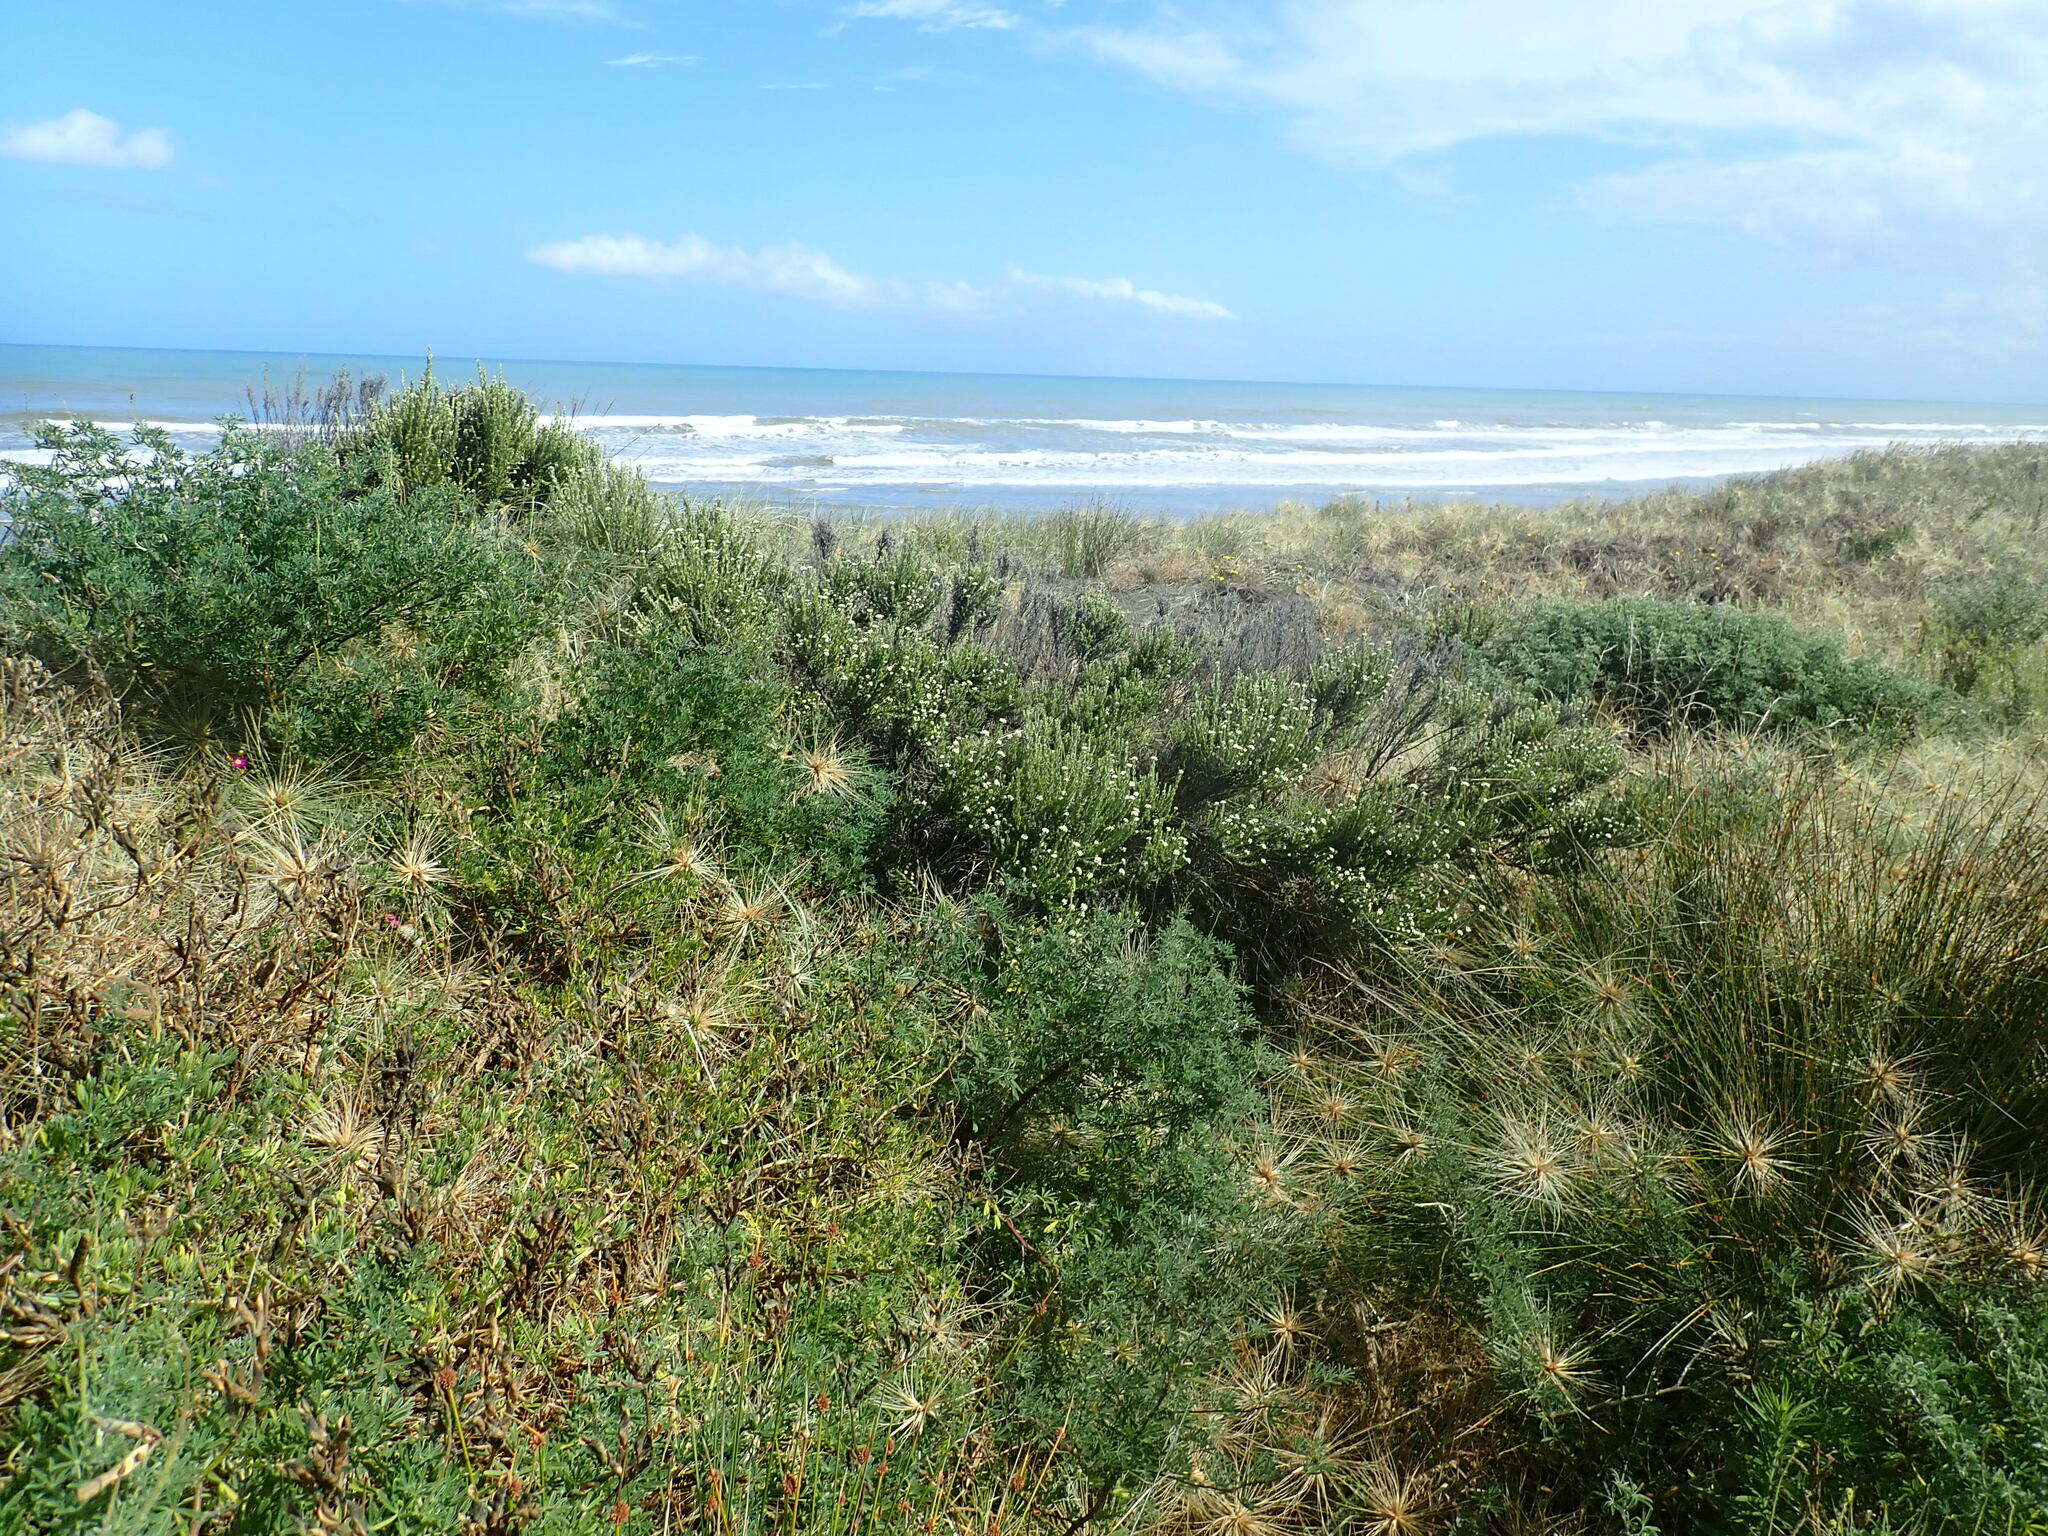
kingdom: Plantae
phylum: Tracheophyta
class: Magnoliopsida
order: Asterales
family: Asteraceae
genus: Ozothamnus
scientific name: Ozothamnus leptophyllus
